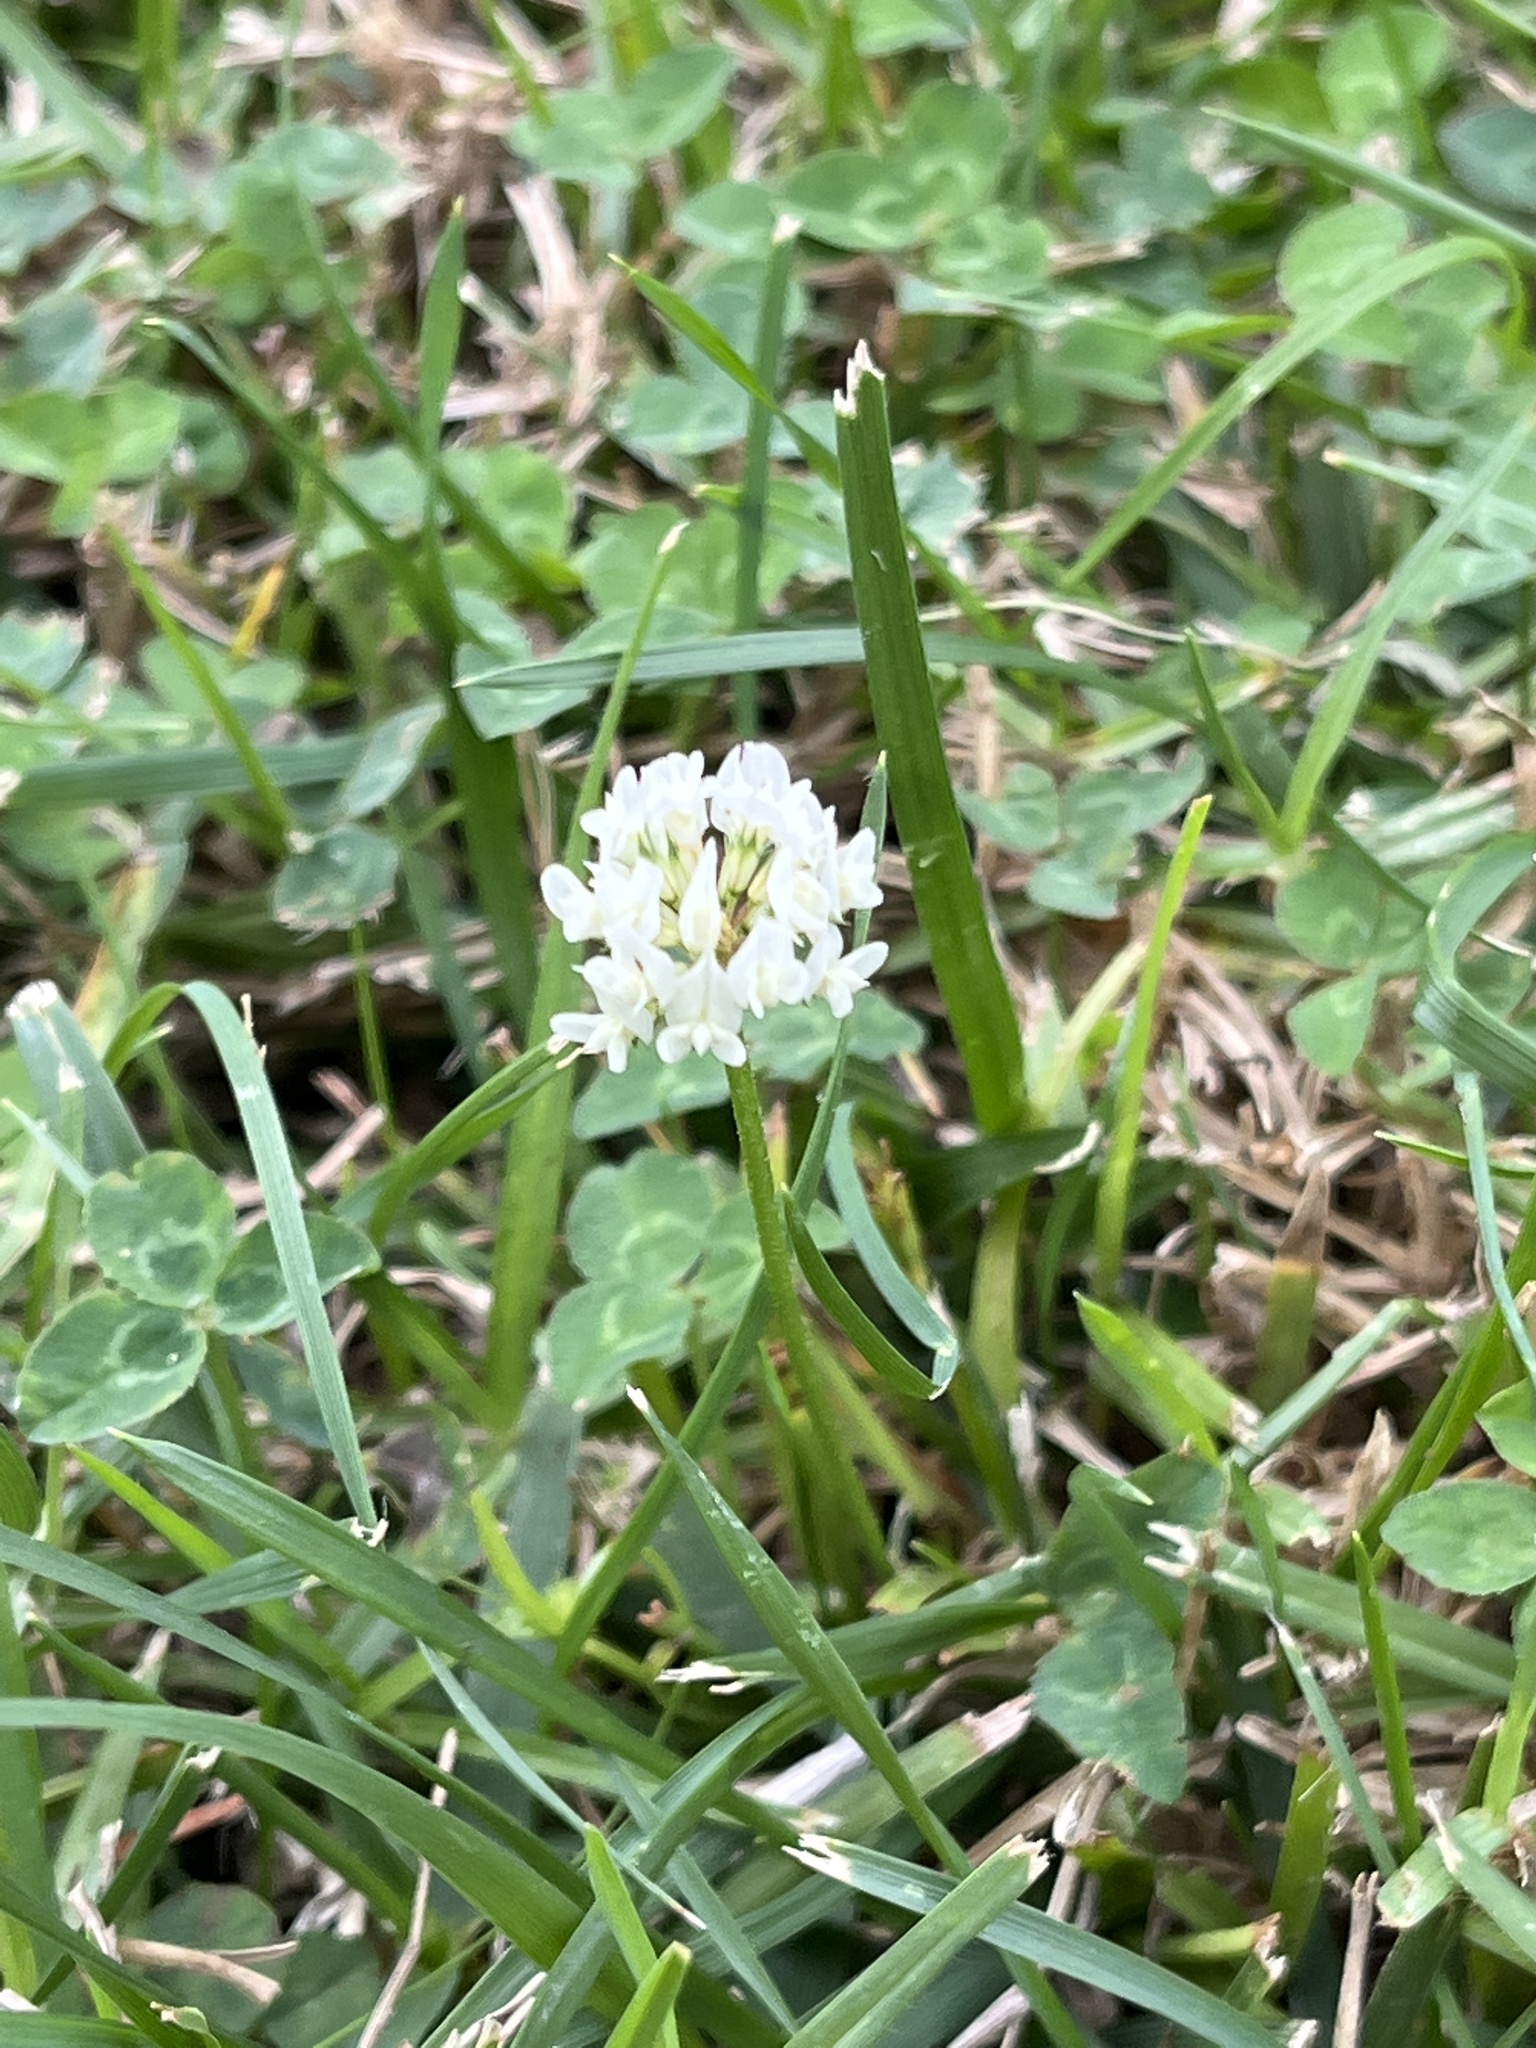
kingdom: Plantae
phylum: Tracheophyta
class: Magnoliopsida
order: Fabales
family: Fabaceae
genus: Trifolium
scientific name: Trifolium repens
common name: White clover
